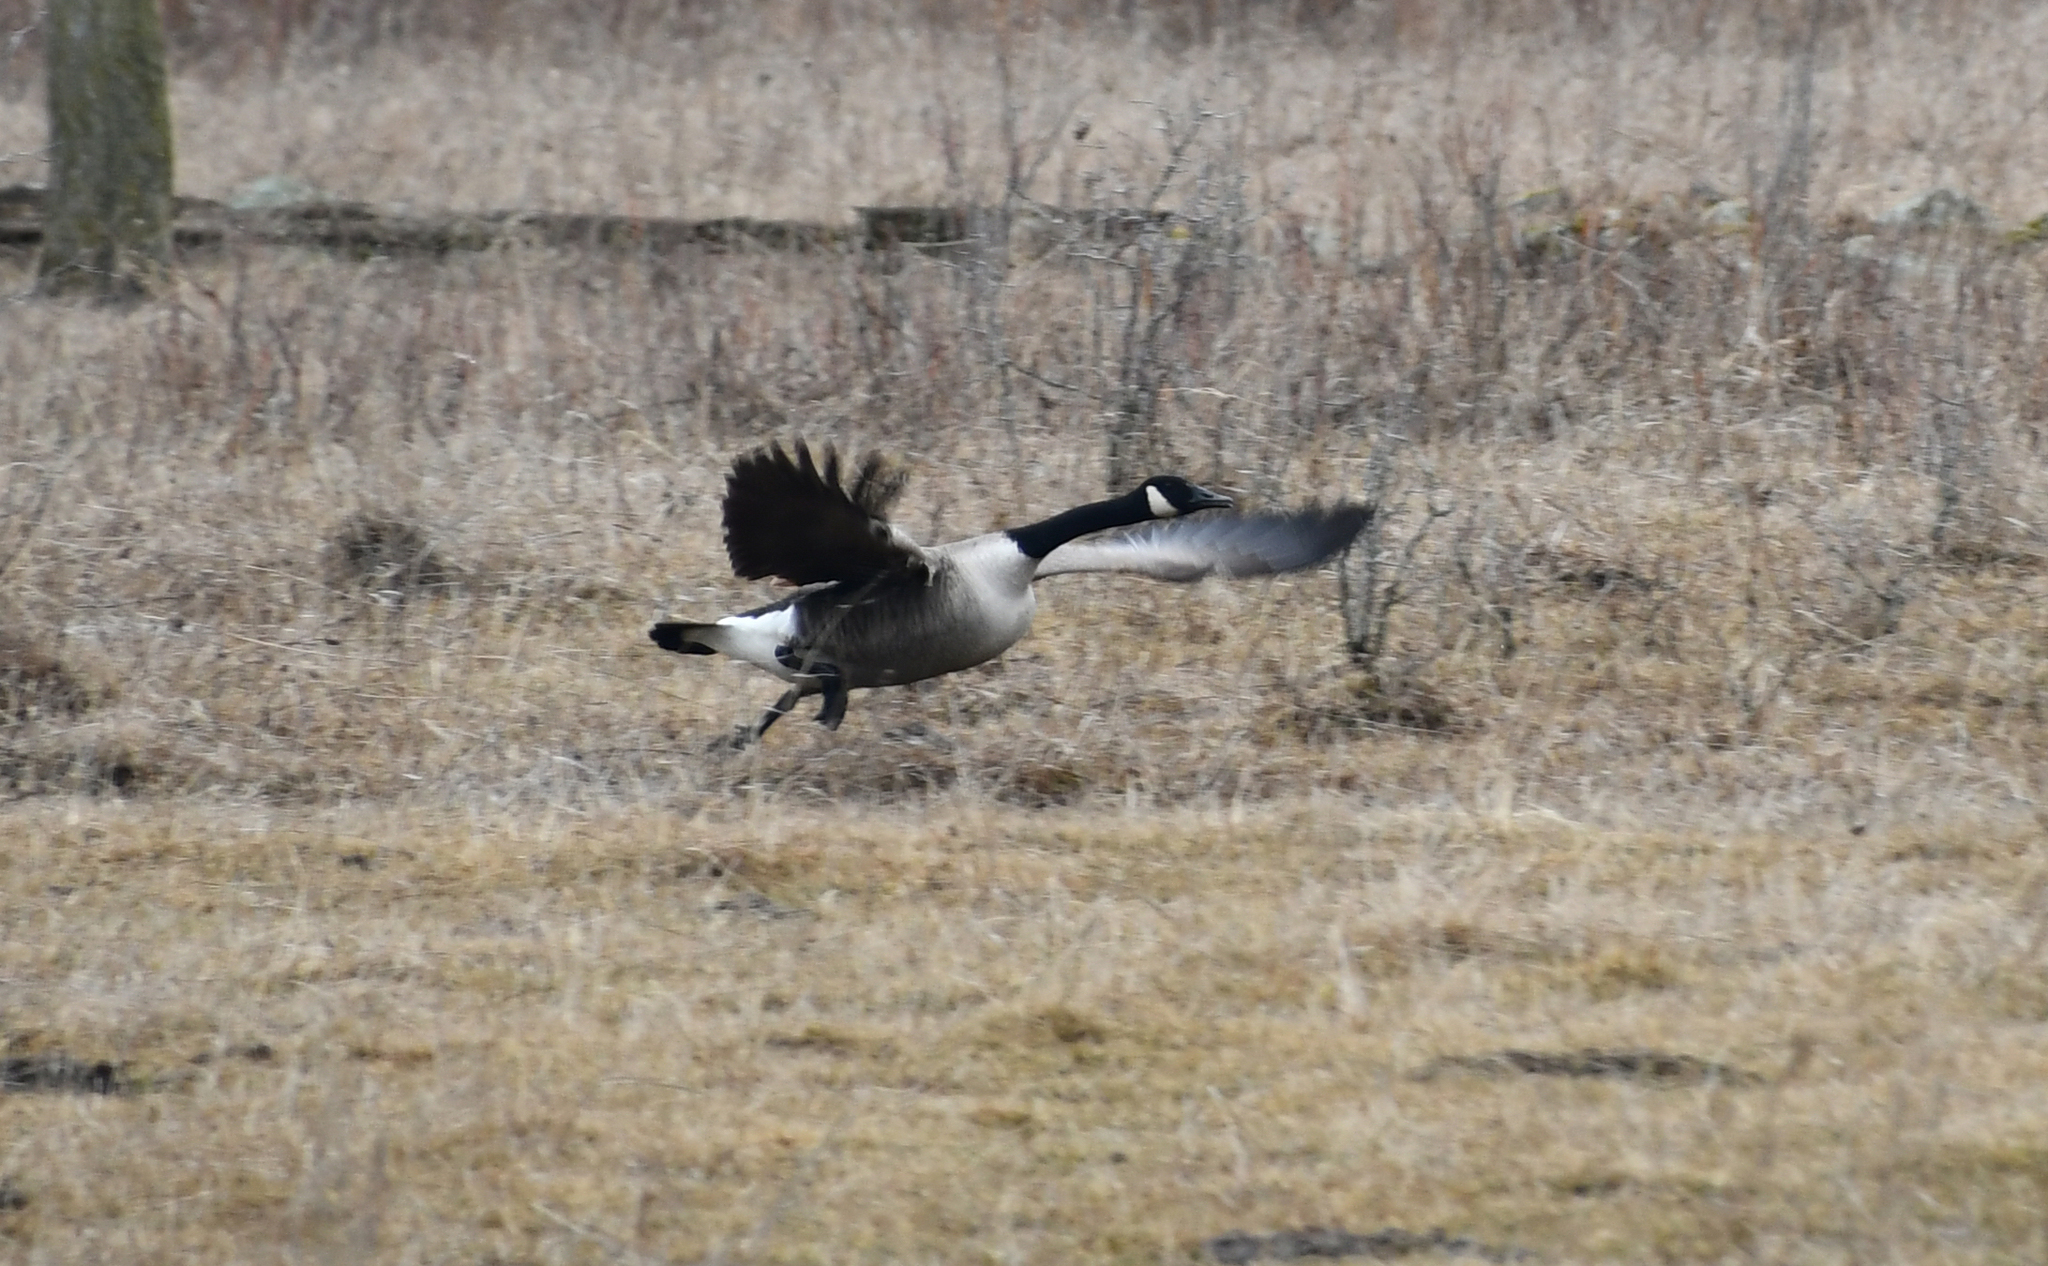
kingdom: Animalia
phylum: Chordata
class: Aves
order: Anseriformes
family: Anatidae
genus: Branta
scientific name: Branta canadensis
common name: Canada goose
